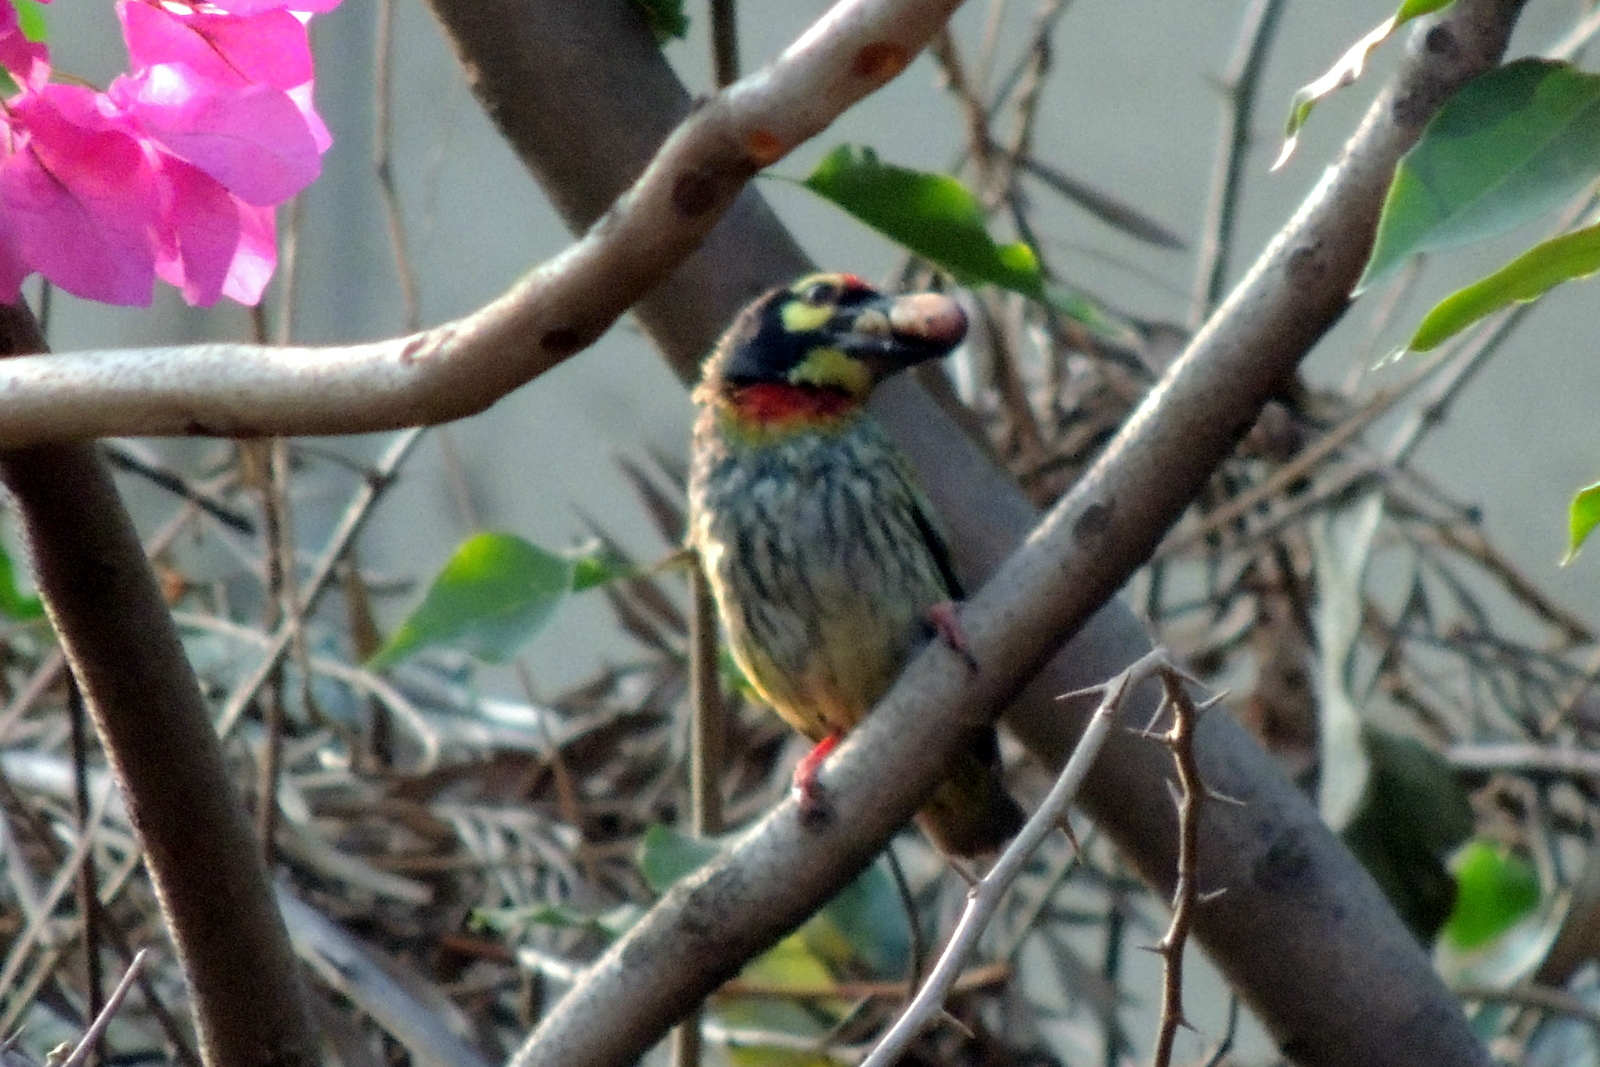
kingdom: Animalia
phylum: Chordata
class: Aves
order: Piciformes
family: Megalaimidae
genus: Psilopogon
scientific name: Psilopogon haemacephalus
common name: Coppersmith barbet
